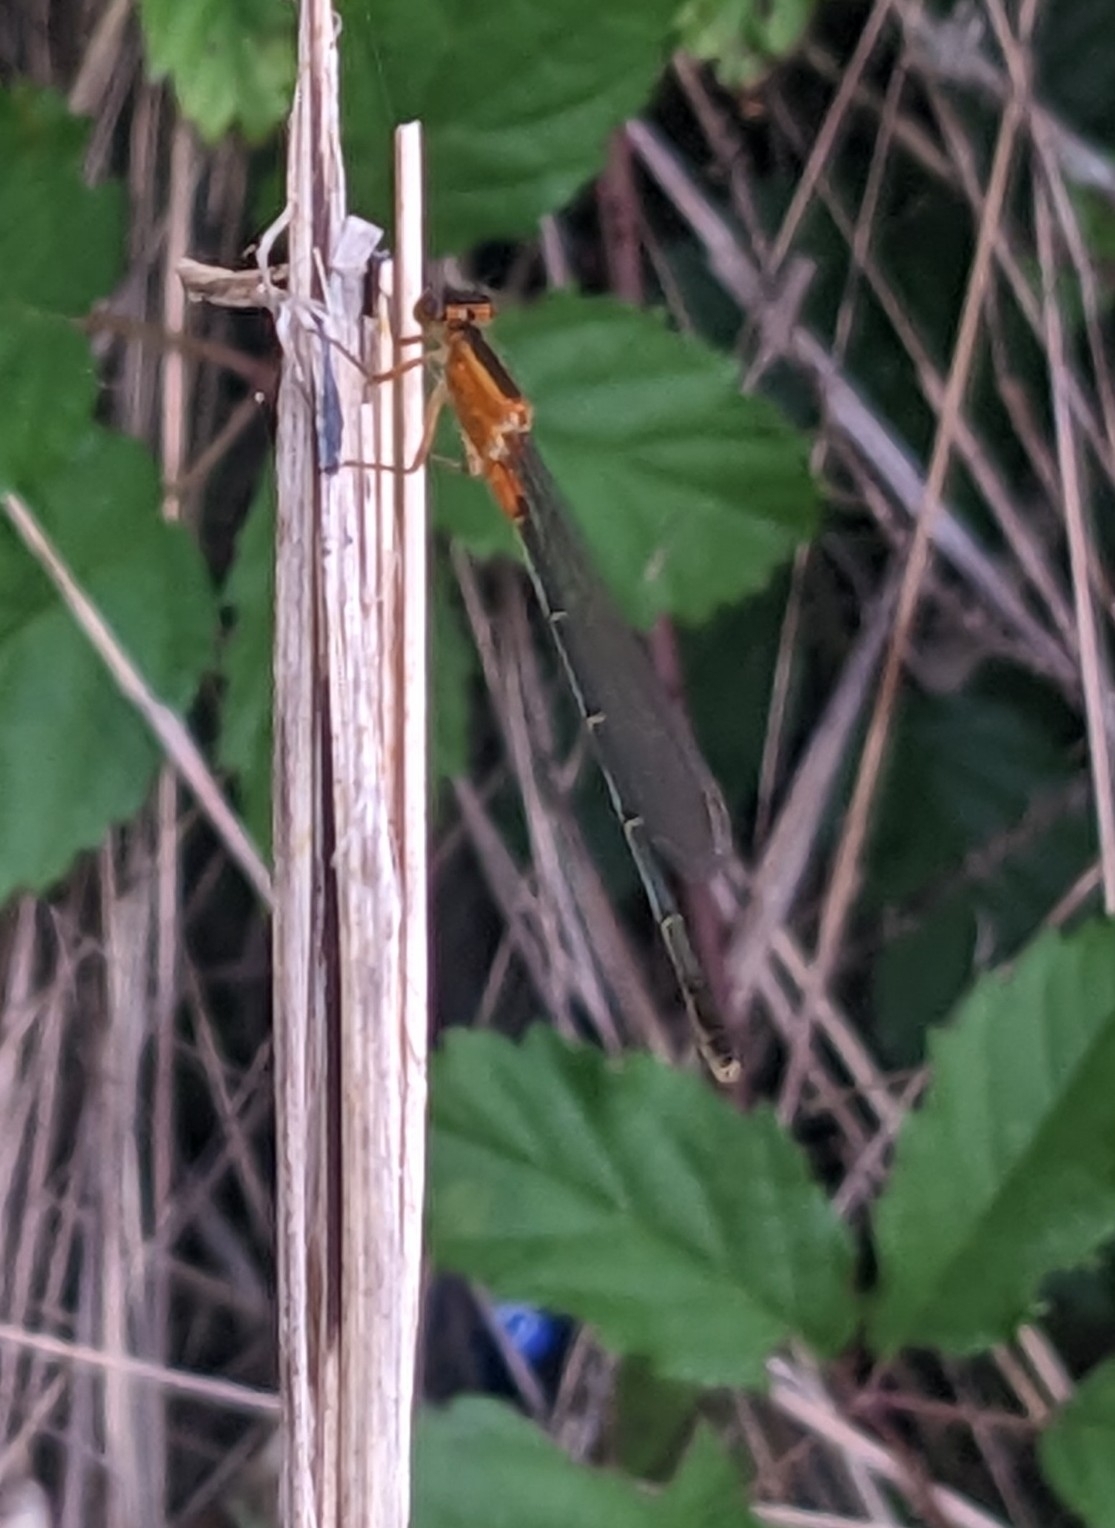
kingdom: Animalia
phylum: Arthropoda
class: Insecta
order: Odonata
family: Coenagrionidae
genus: Ischnura
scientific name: Ischnura ramburii
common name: Rambur's forktail
